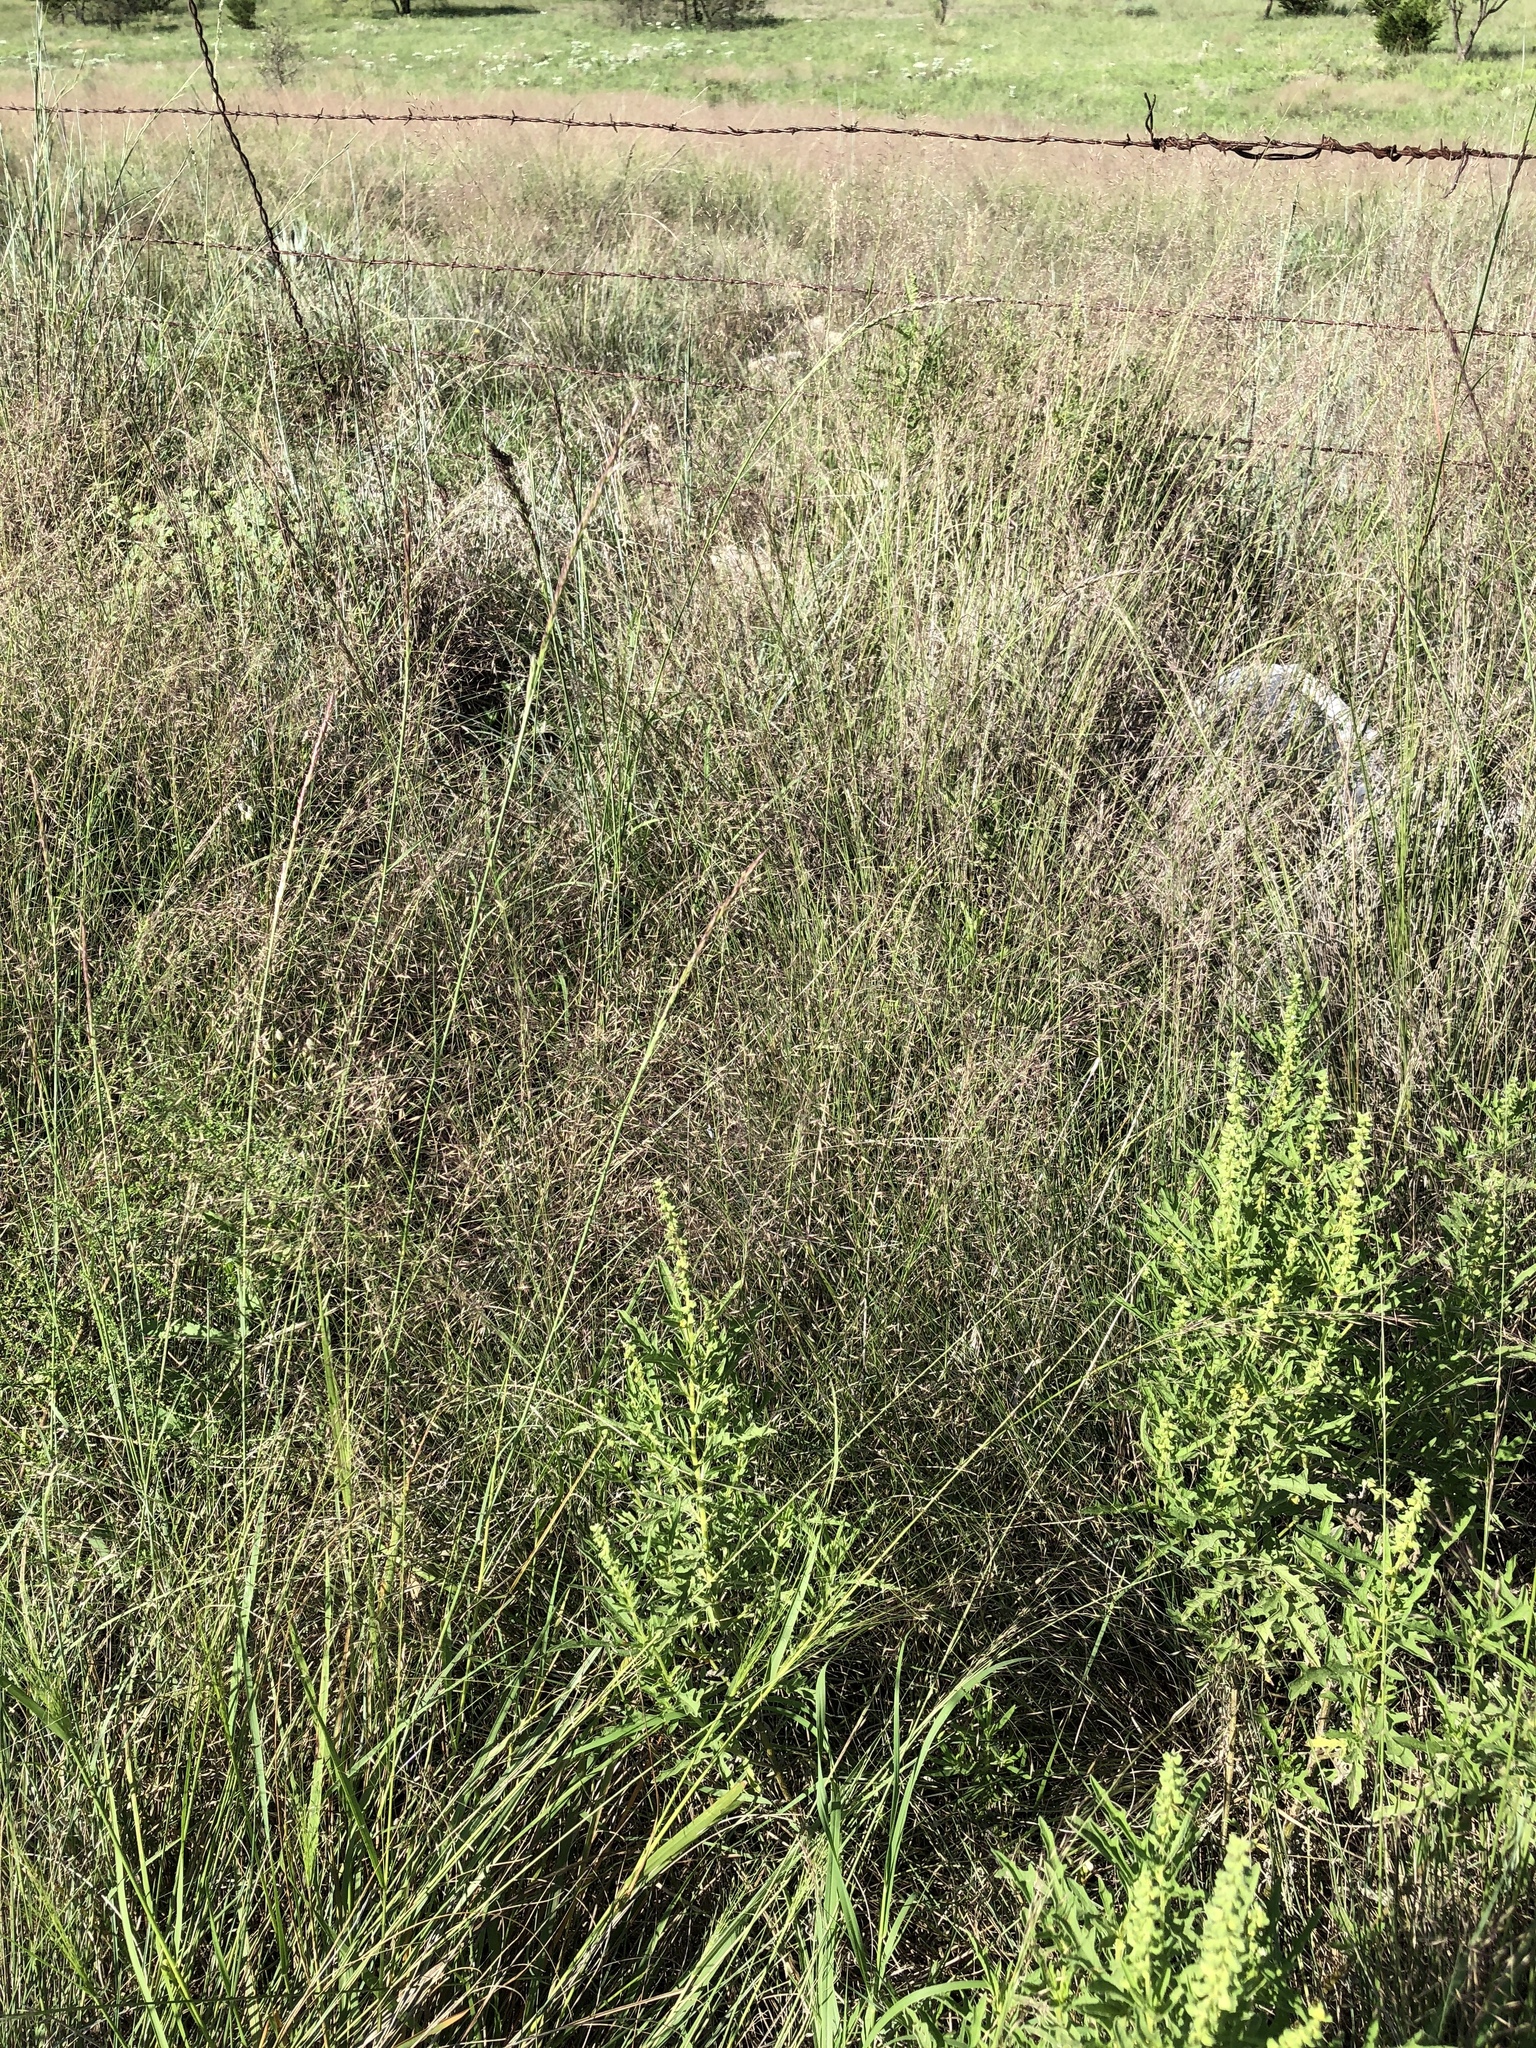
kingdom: Plantae
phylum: Tracheophyta
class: Liliopsida
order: Poales
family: Poaceae
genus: Muhlenbergia
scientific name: Muhlenbergia reverchonii
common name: Seep muhly
